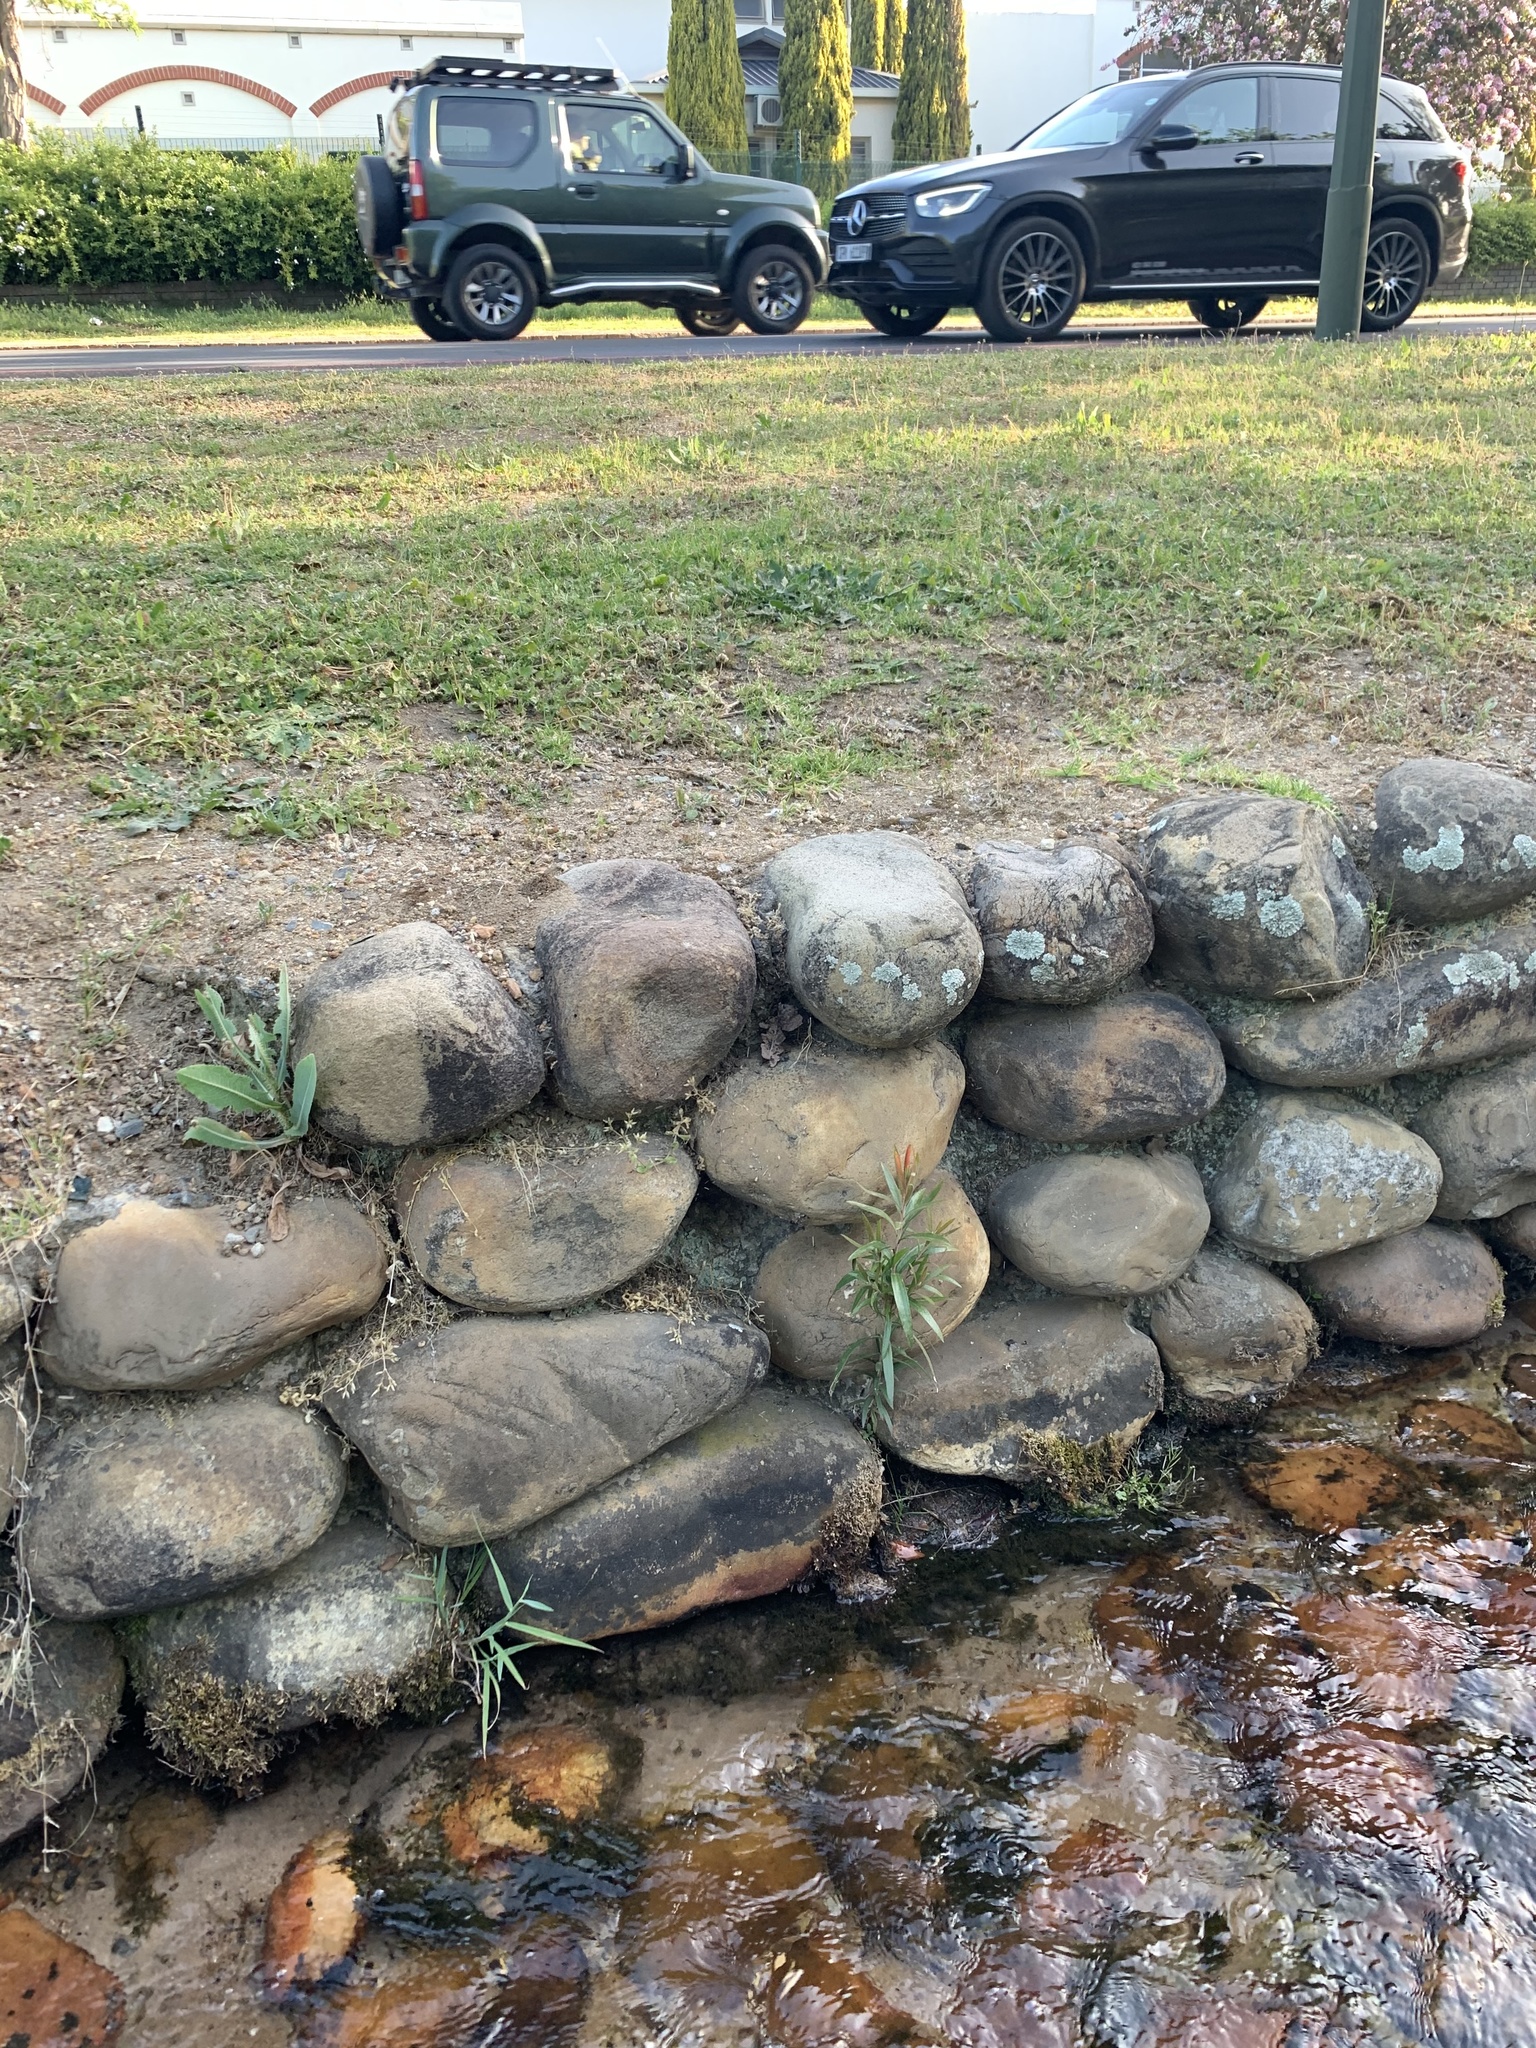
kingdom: Plantae
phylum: Tracheophyta
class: Magnoliopsida
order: Myrtales
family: Myrtaceae
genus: Callistemon
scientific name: Callistemon viminalis
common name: Drooping bottlebrush
